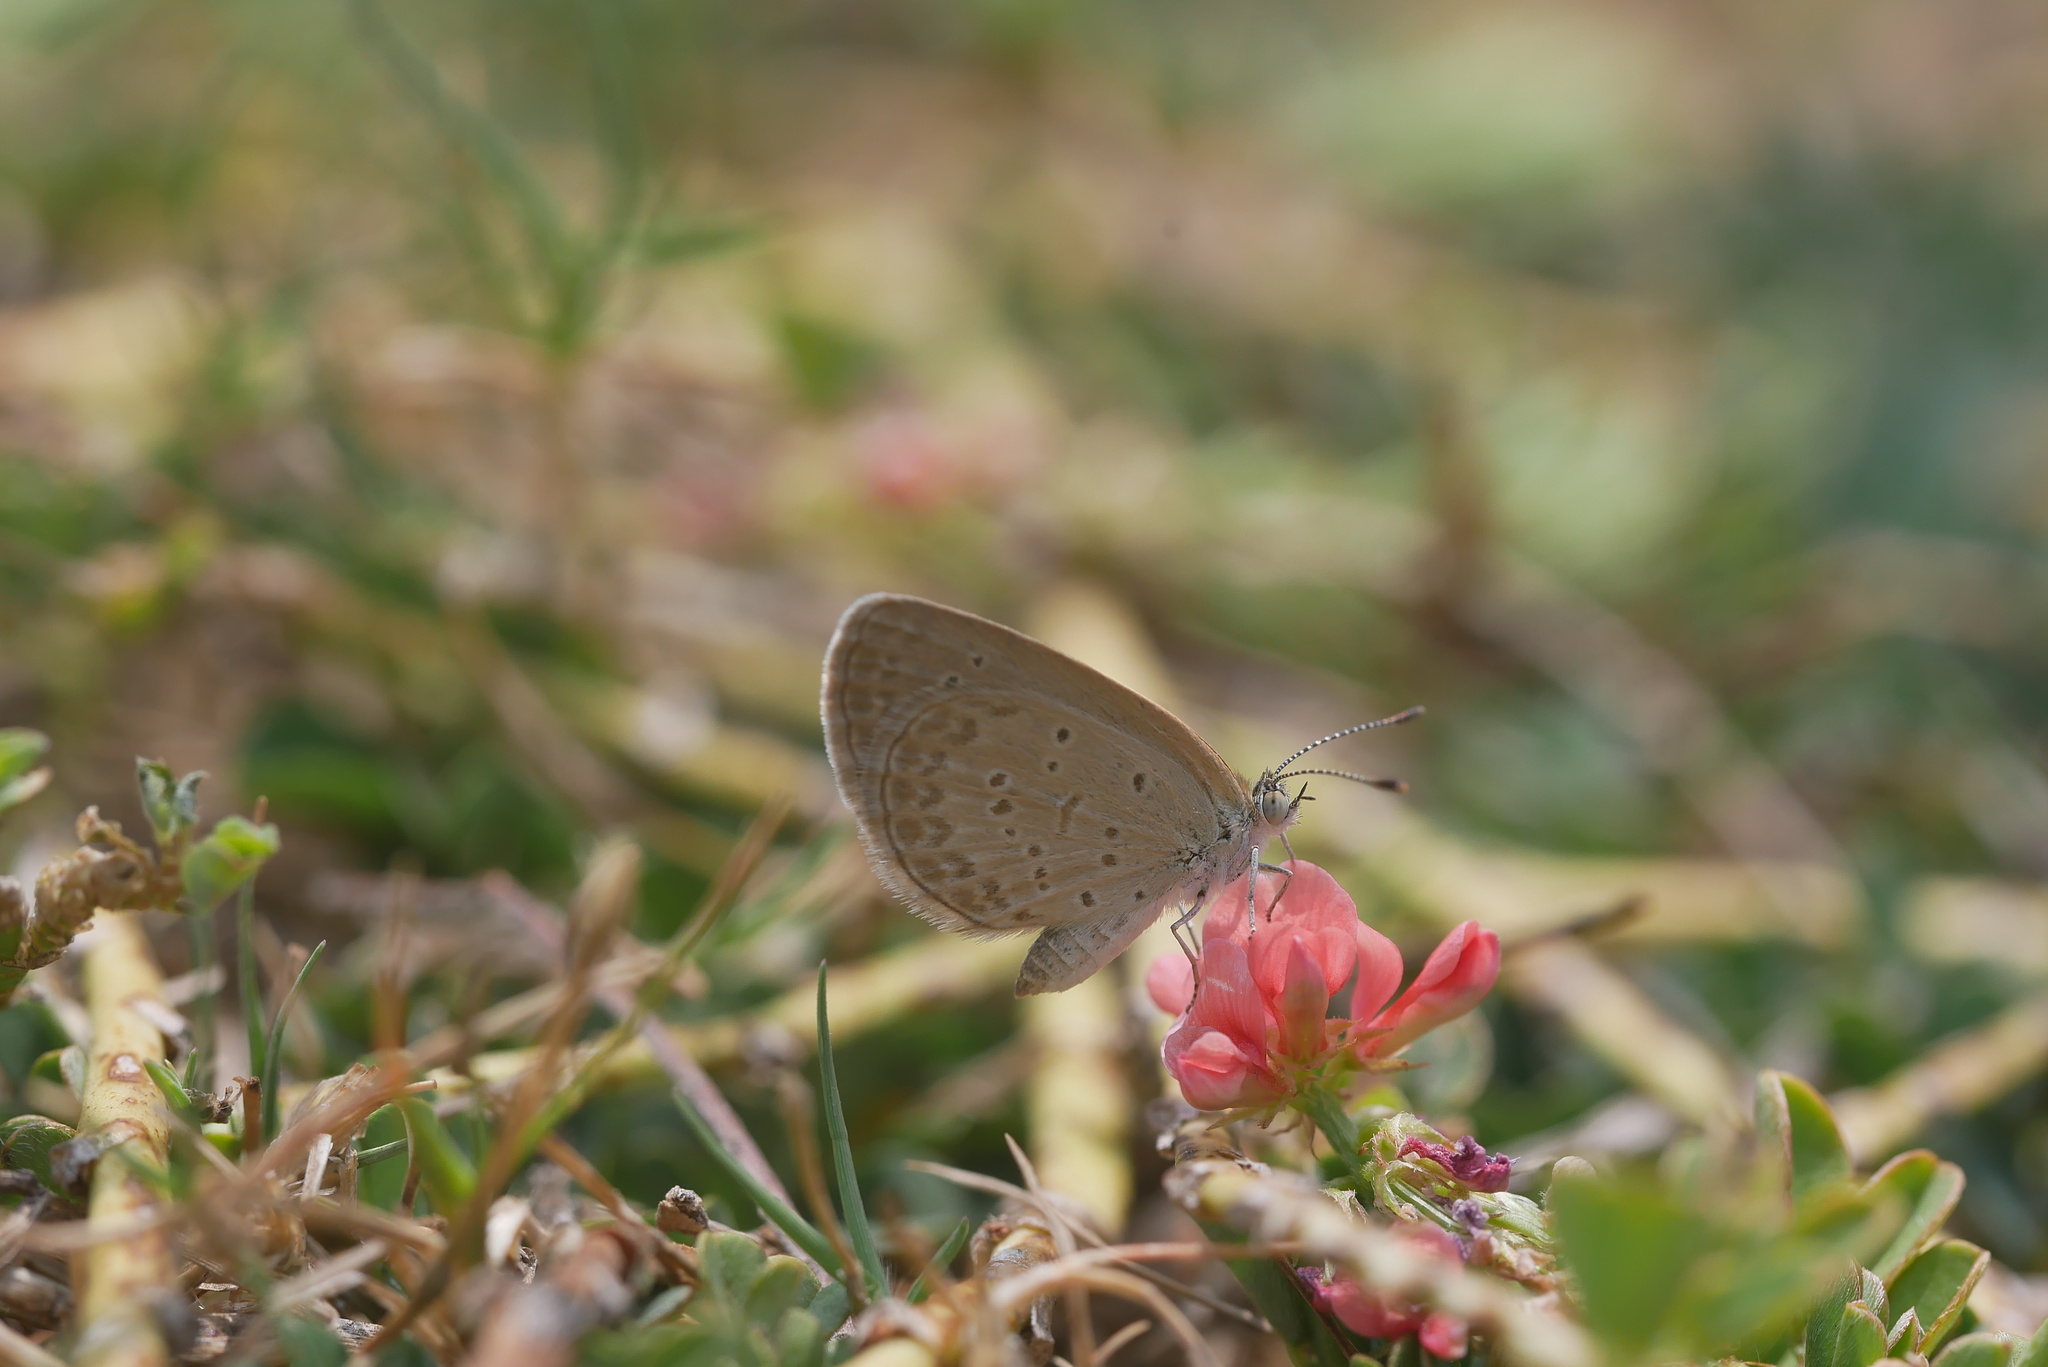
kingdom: Animalia
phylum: Arthropoda
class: Insecta
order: Lepidoptera
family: Lycaenidae
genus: Zizina
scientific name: Zizina otis
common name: Lesser grass blue
